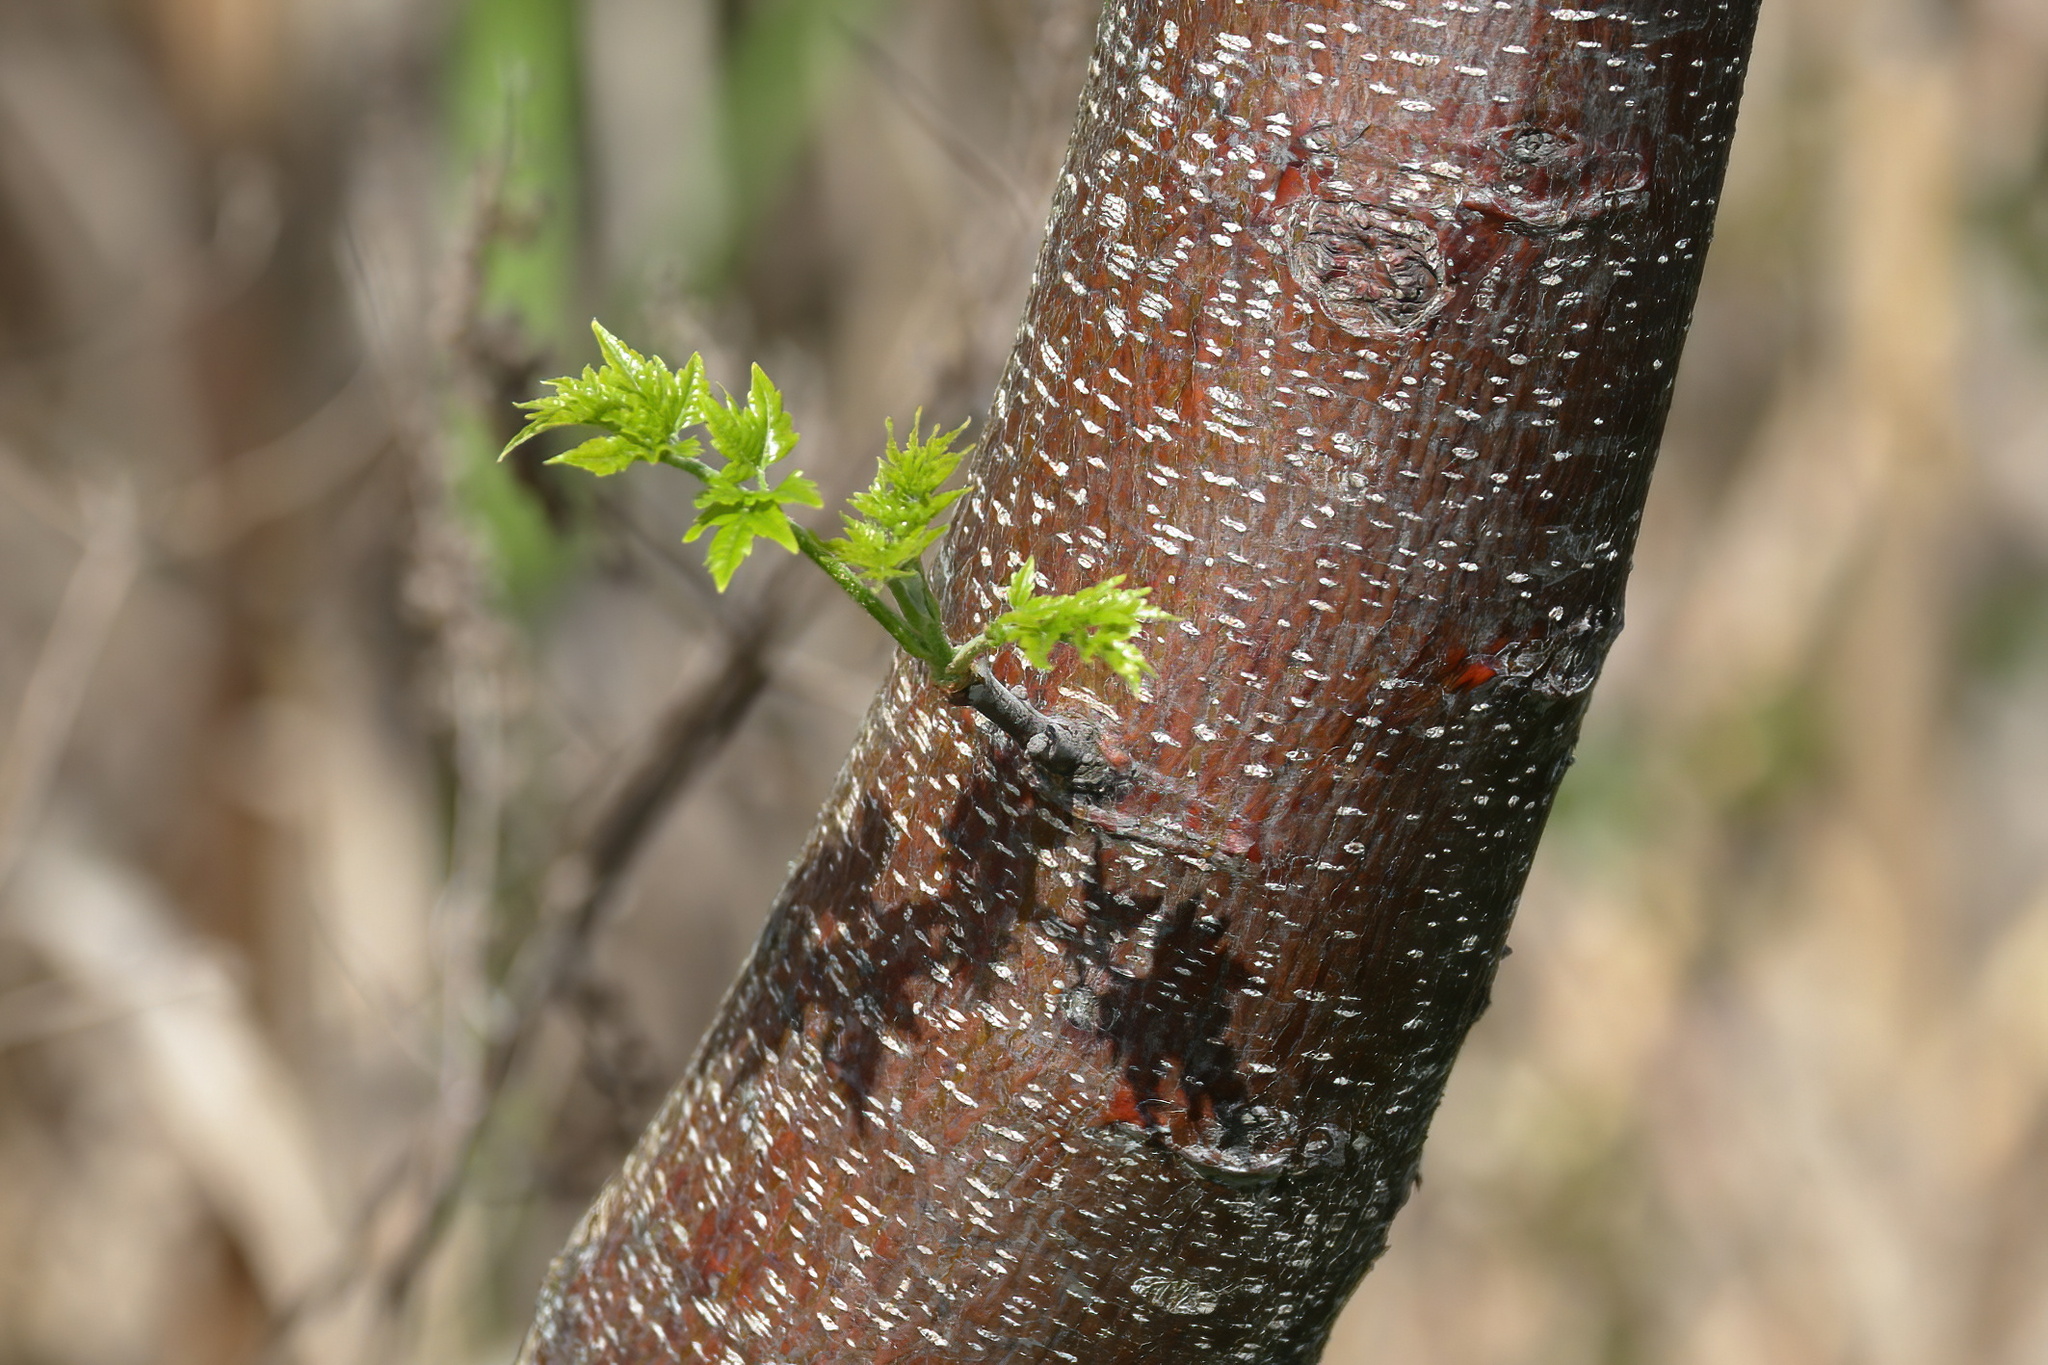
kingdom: Plantae
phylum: Tracheophyta
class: Magnoliopsida
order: Sapindales
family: Meliaceae
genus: Melia
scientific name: Melia azedarach
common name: Chinaberrytree
